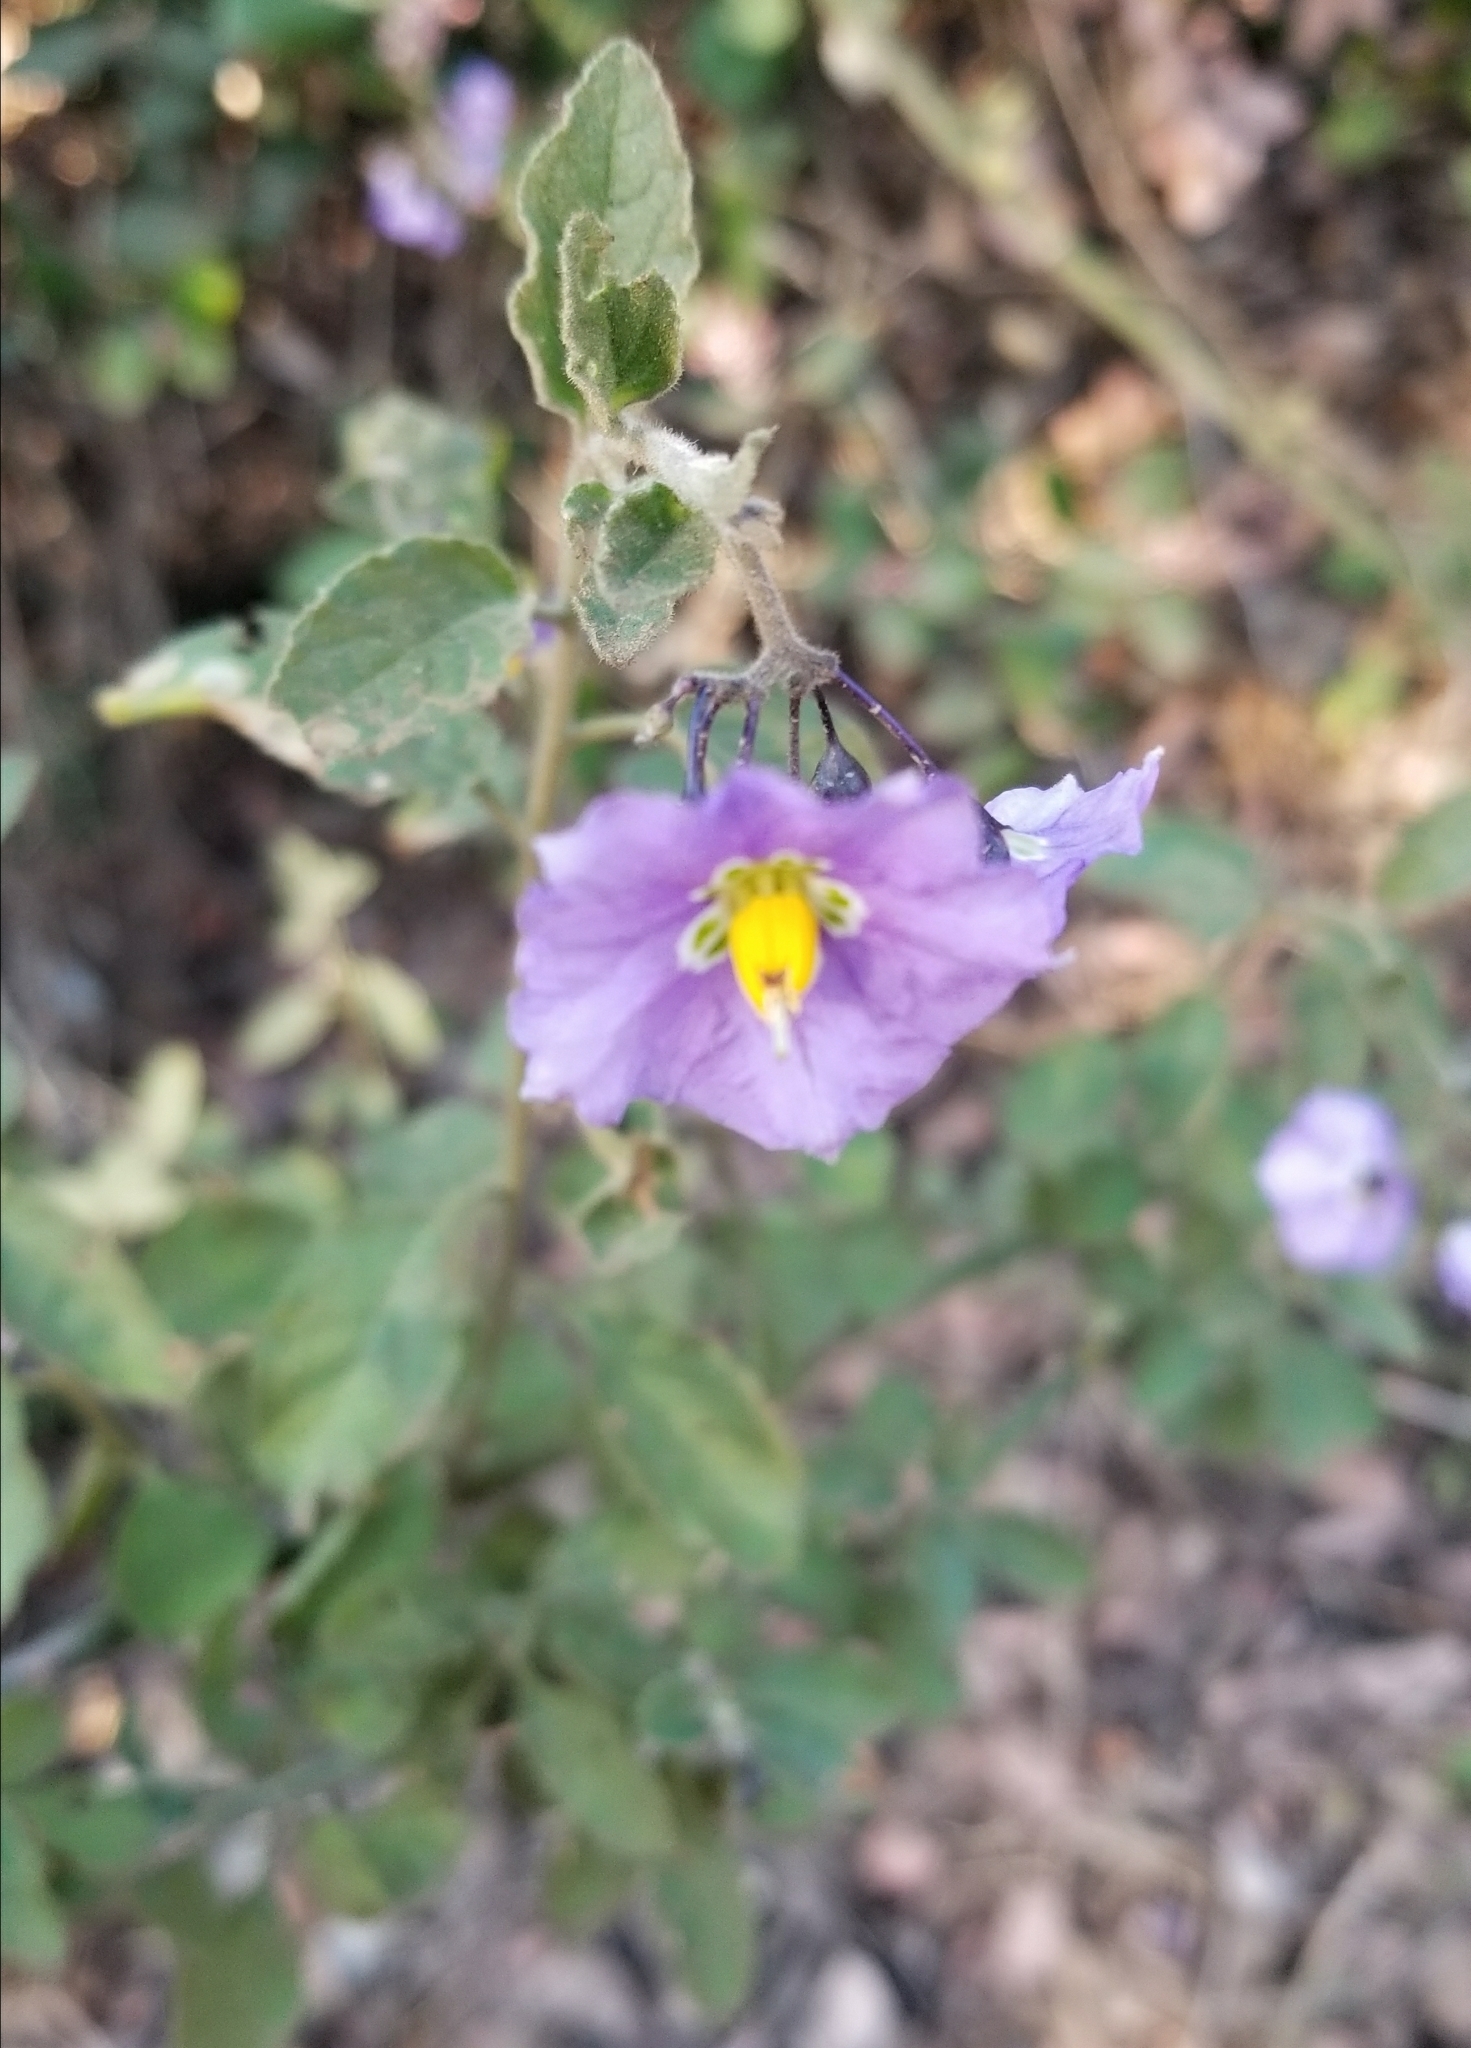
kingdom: Plantae
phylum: Tracheophyta
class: Magnoliopsida
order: Solanales
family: Solanaceae
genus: Solanum
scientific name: Solanum umbelliferum
